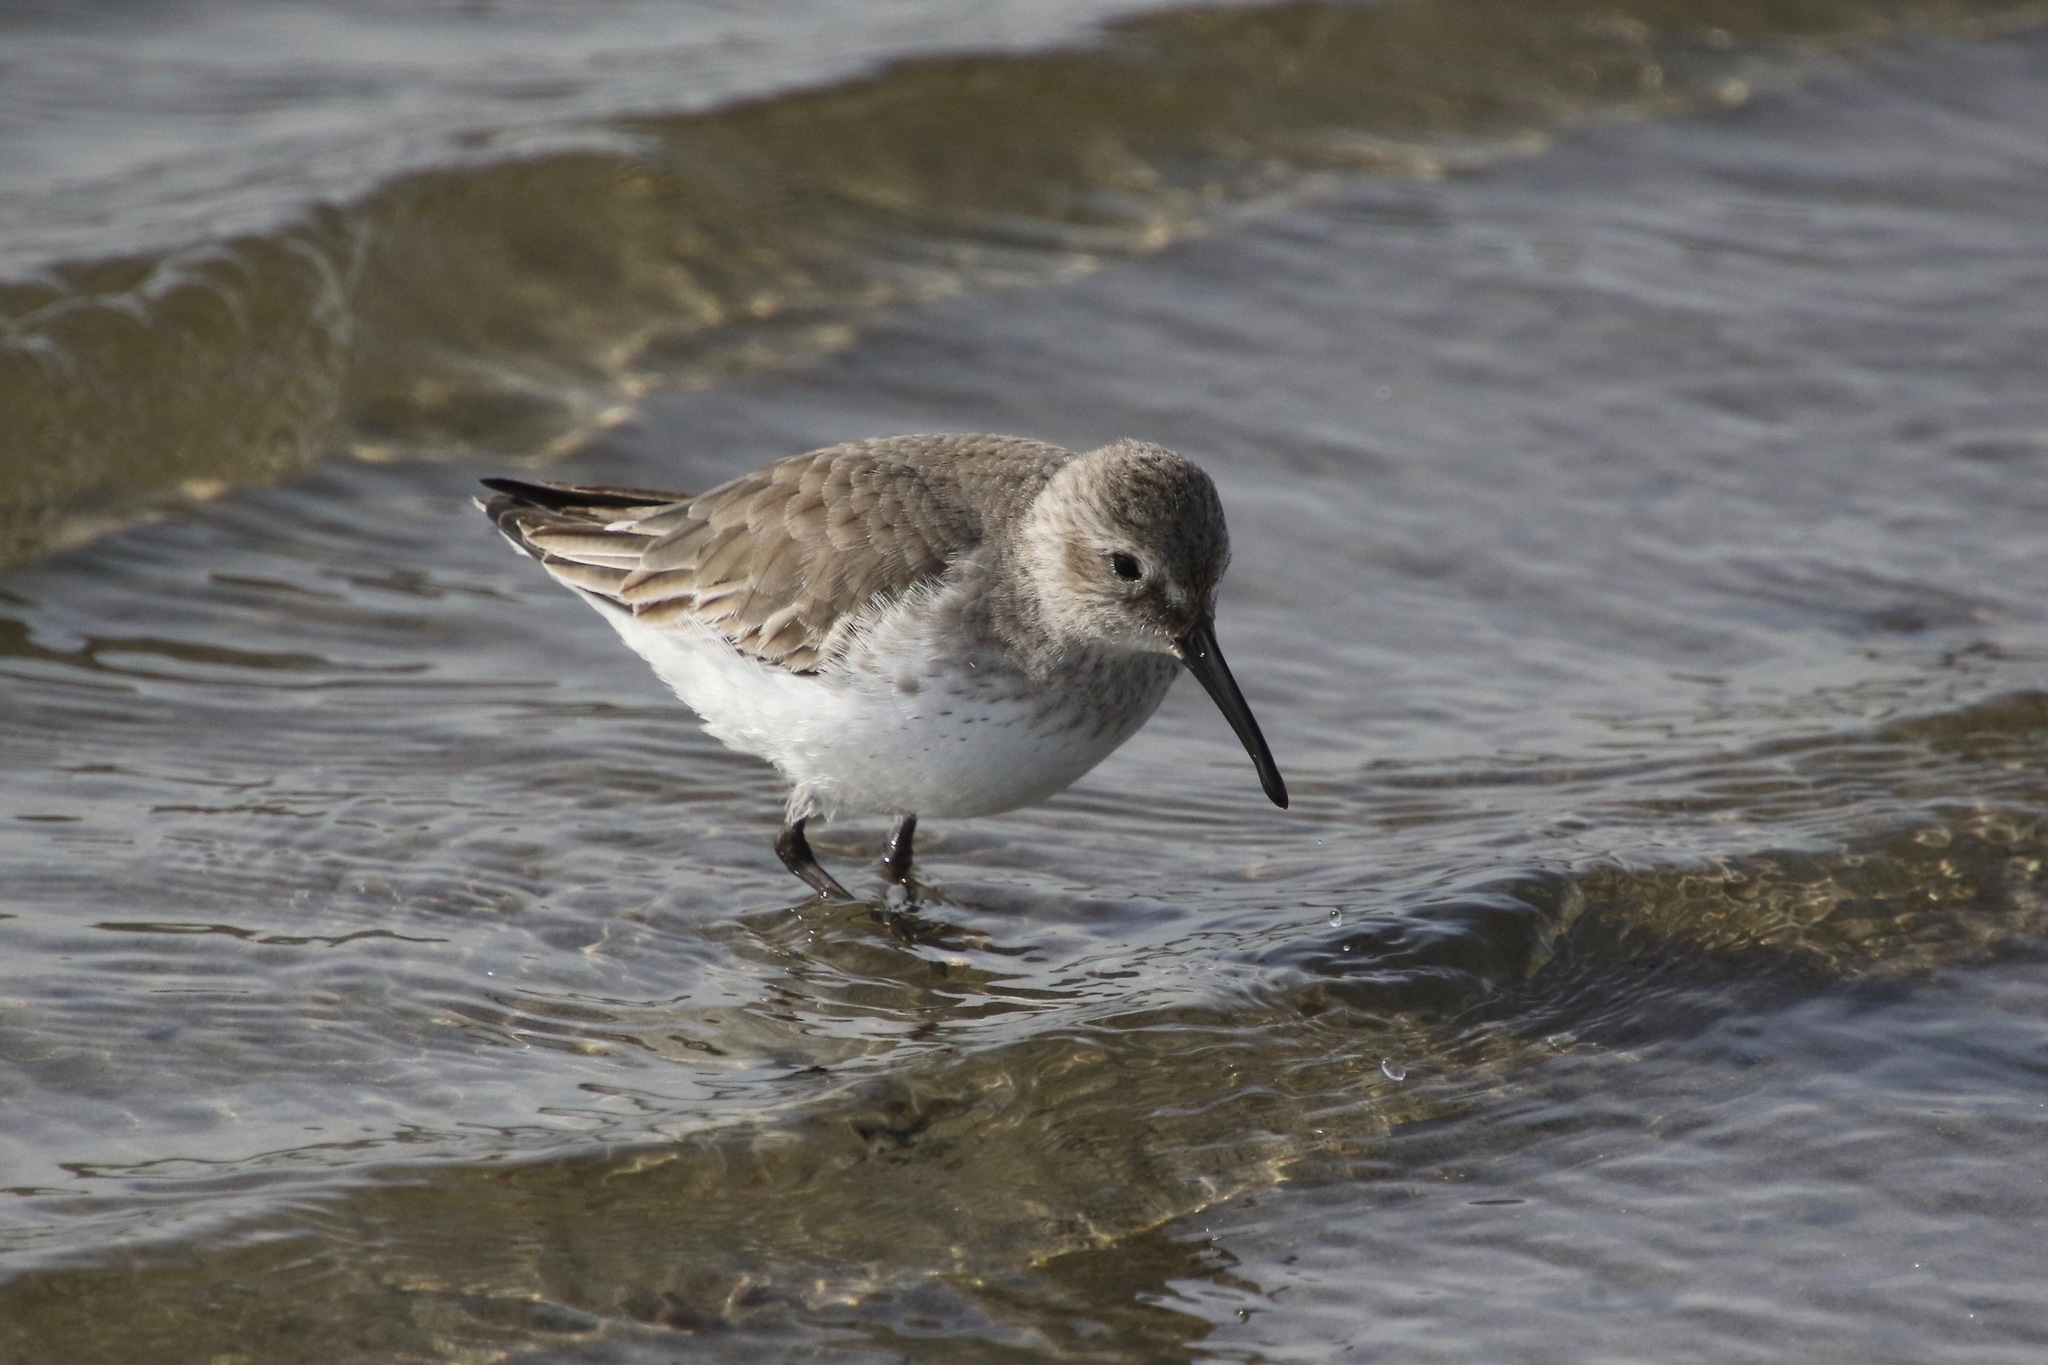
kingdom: Animalia
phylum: Chordata
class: Aves
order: Charadriiformes
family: Scolopacidae
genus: Calidris
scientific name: Calidris alpina
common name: Dunlin
